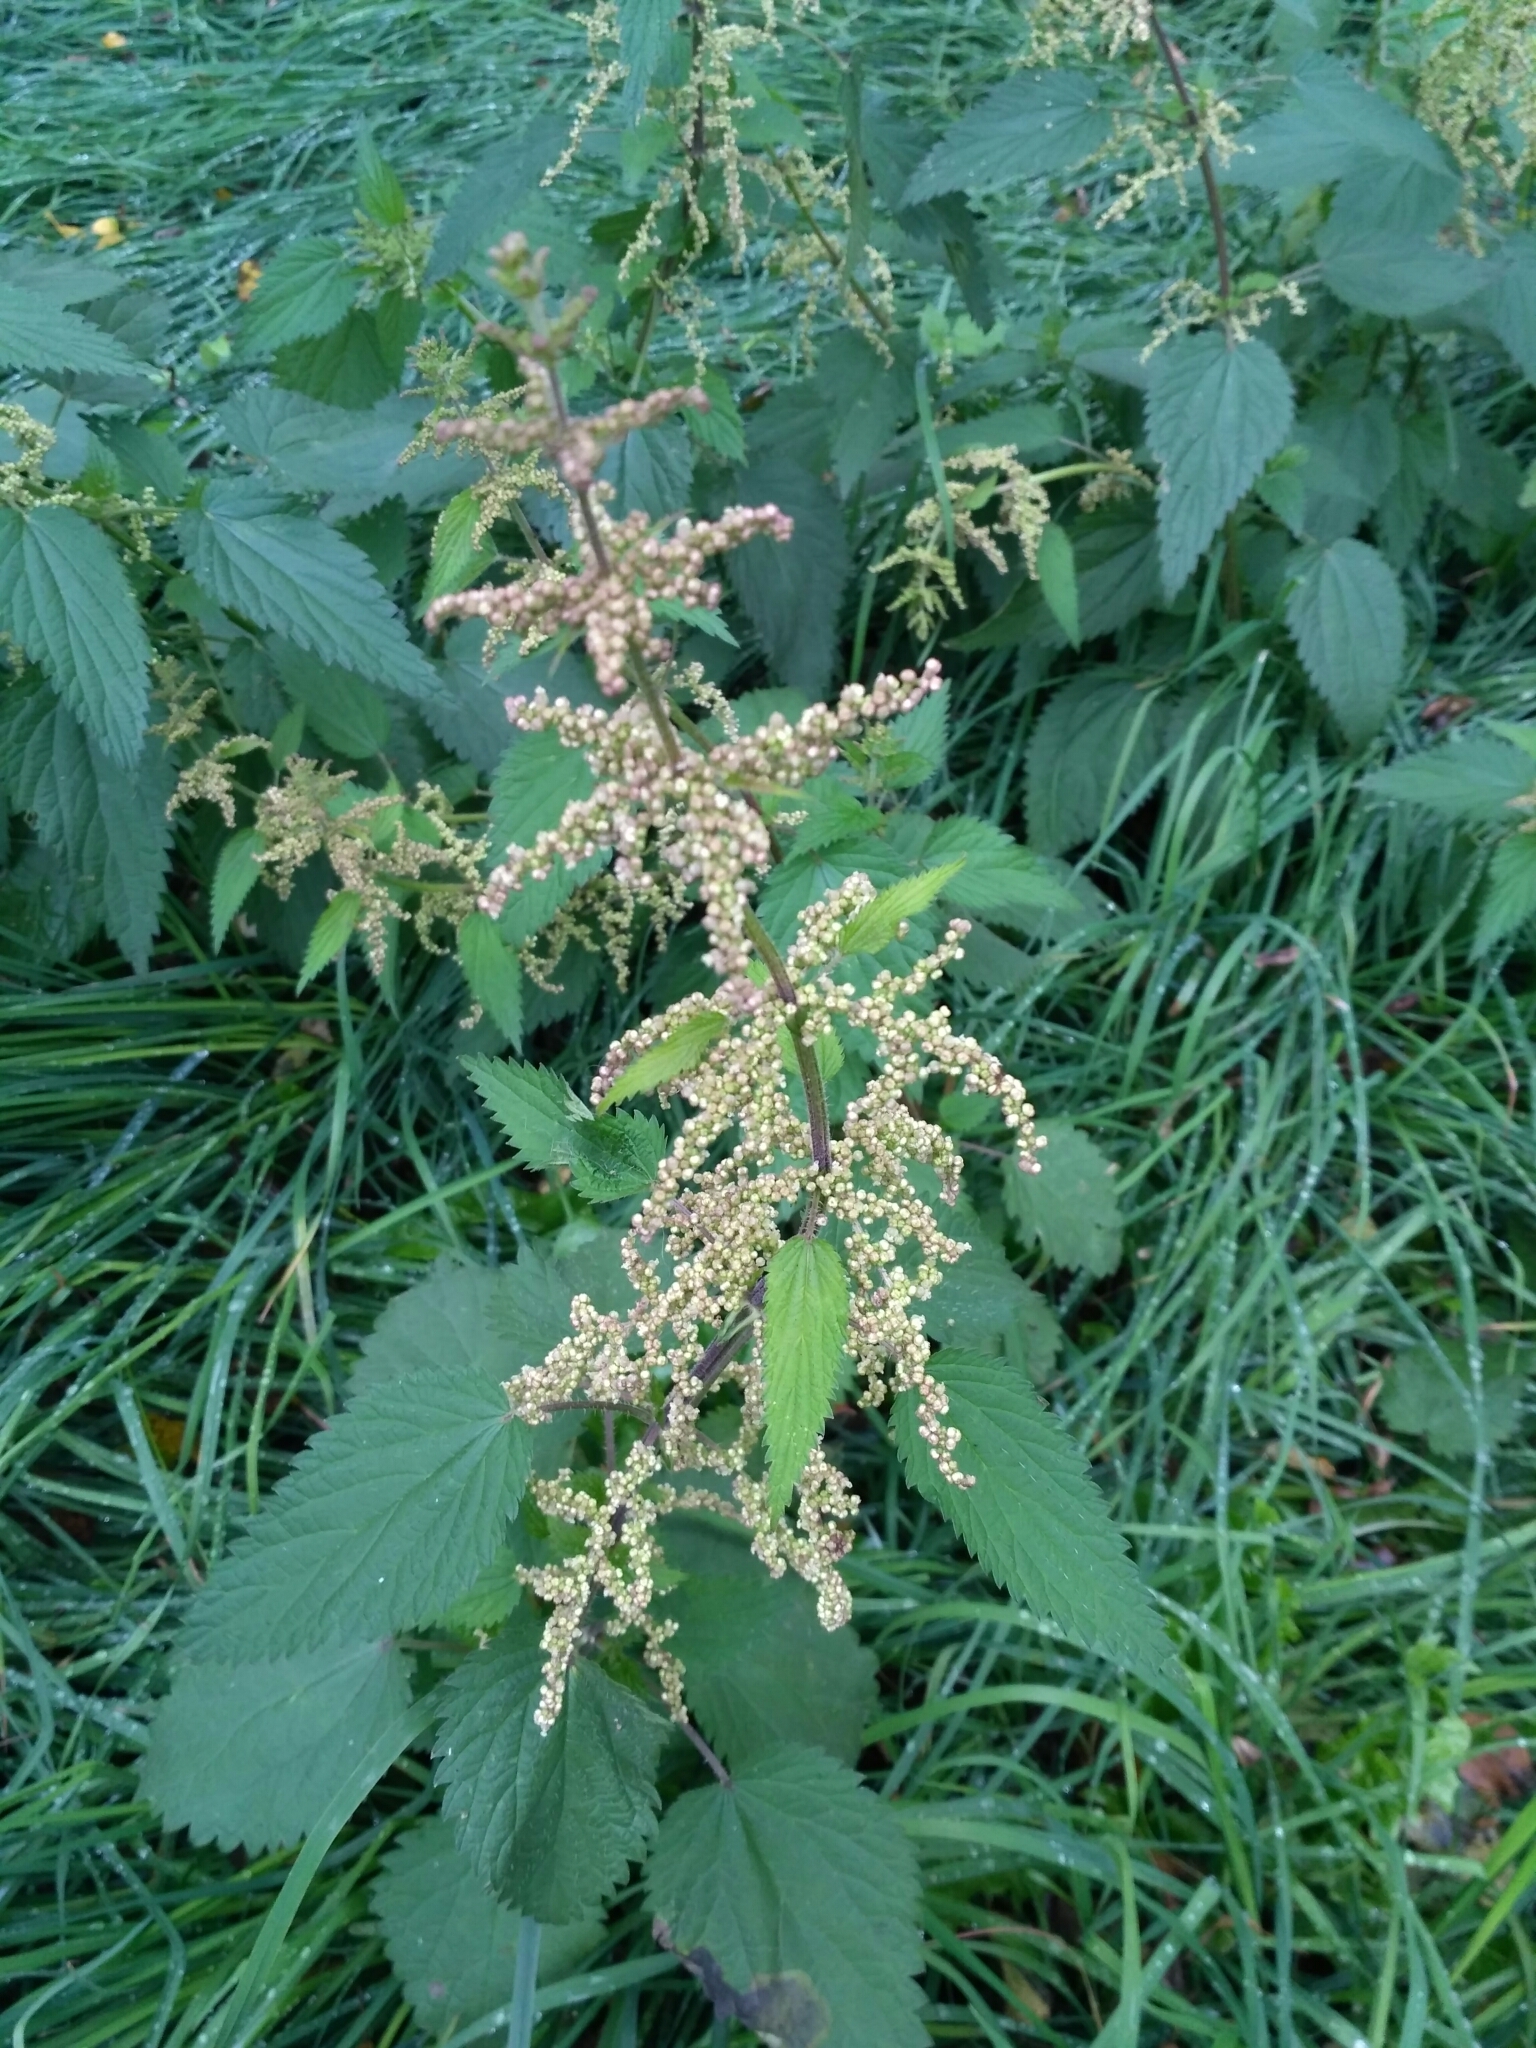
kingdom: Plantae
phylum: Tracheophyta
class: Magnoliopsida
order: Rosales
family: Urticaceae
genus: Urtica
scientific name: Urtica dioica
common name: Common nettle
